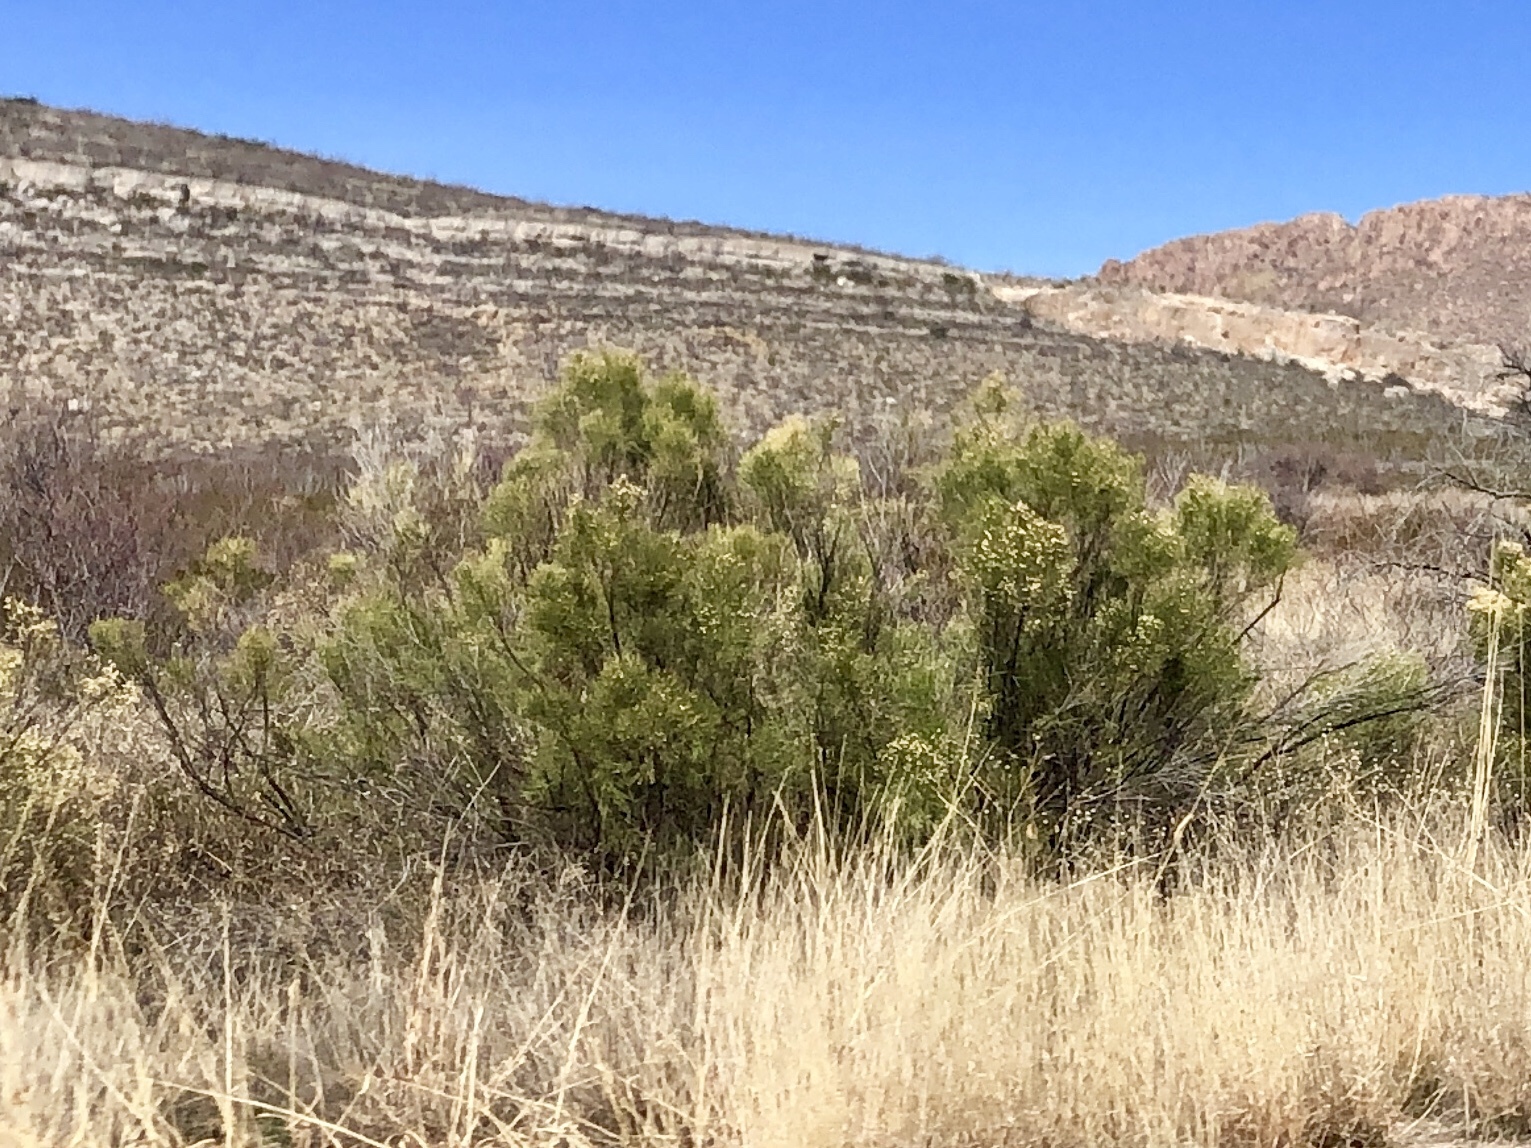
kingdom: Plantae
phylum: Tracheophyta
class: Magnoliopsida
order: Asterales
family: Asteraceae
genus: Baccharis
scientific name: Baccharis sarothroides
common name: Desert-broom
